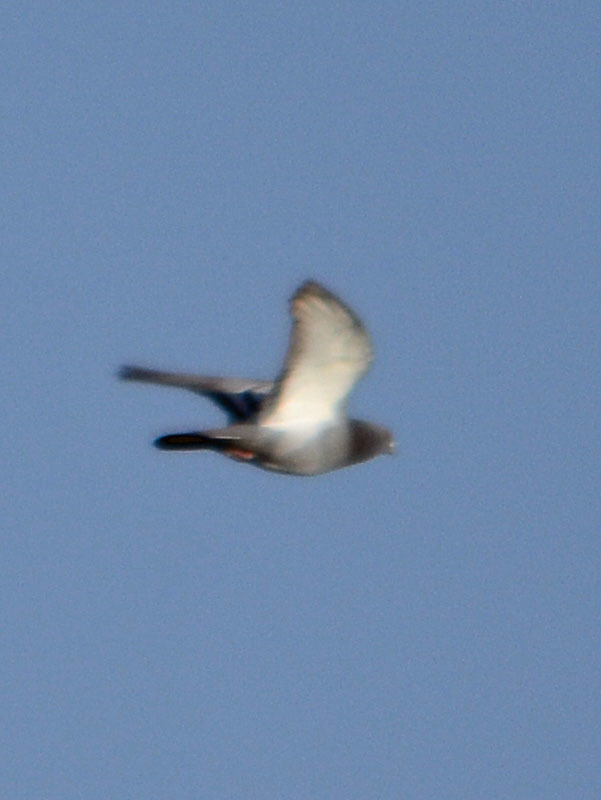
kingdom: Animalia
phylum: Chordata
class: Aves
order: Columbiformes
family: Columbidae
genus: Columba
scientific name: Columba livia
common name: Rock pigeon
